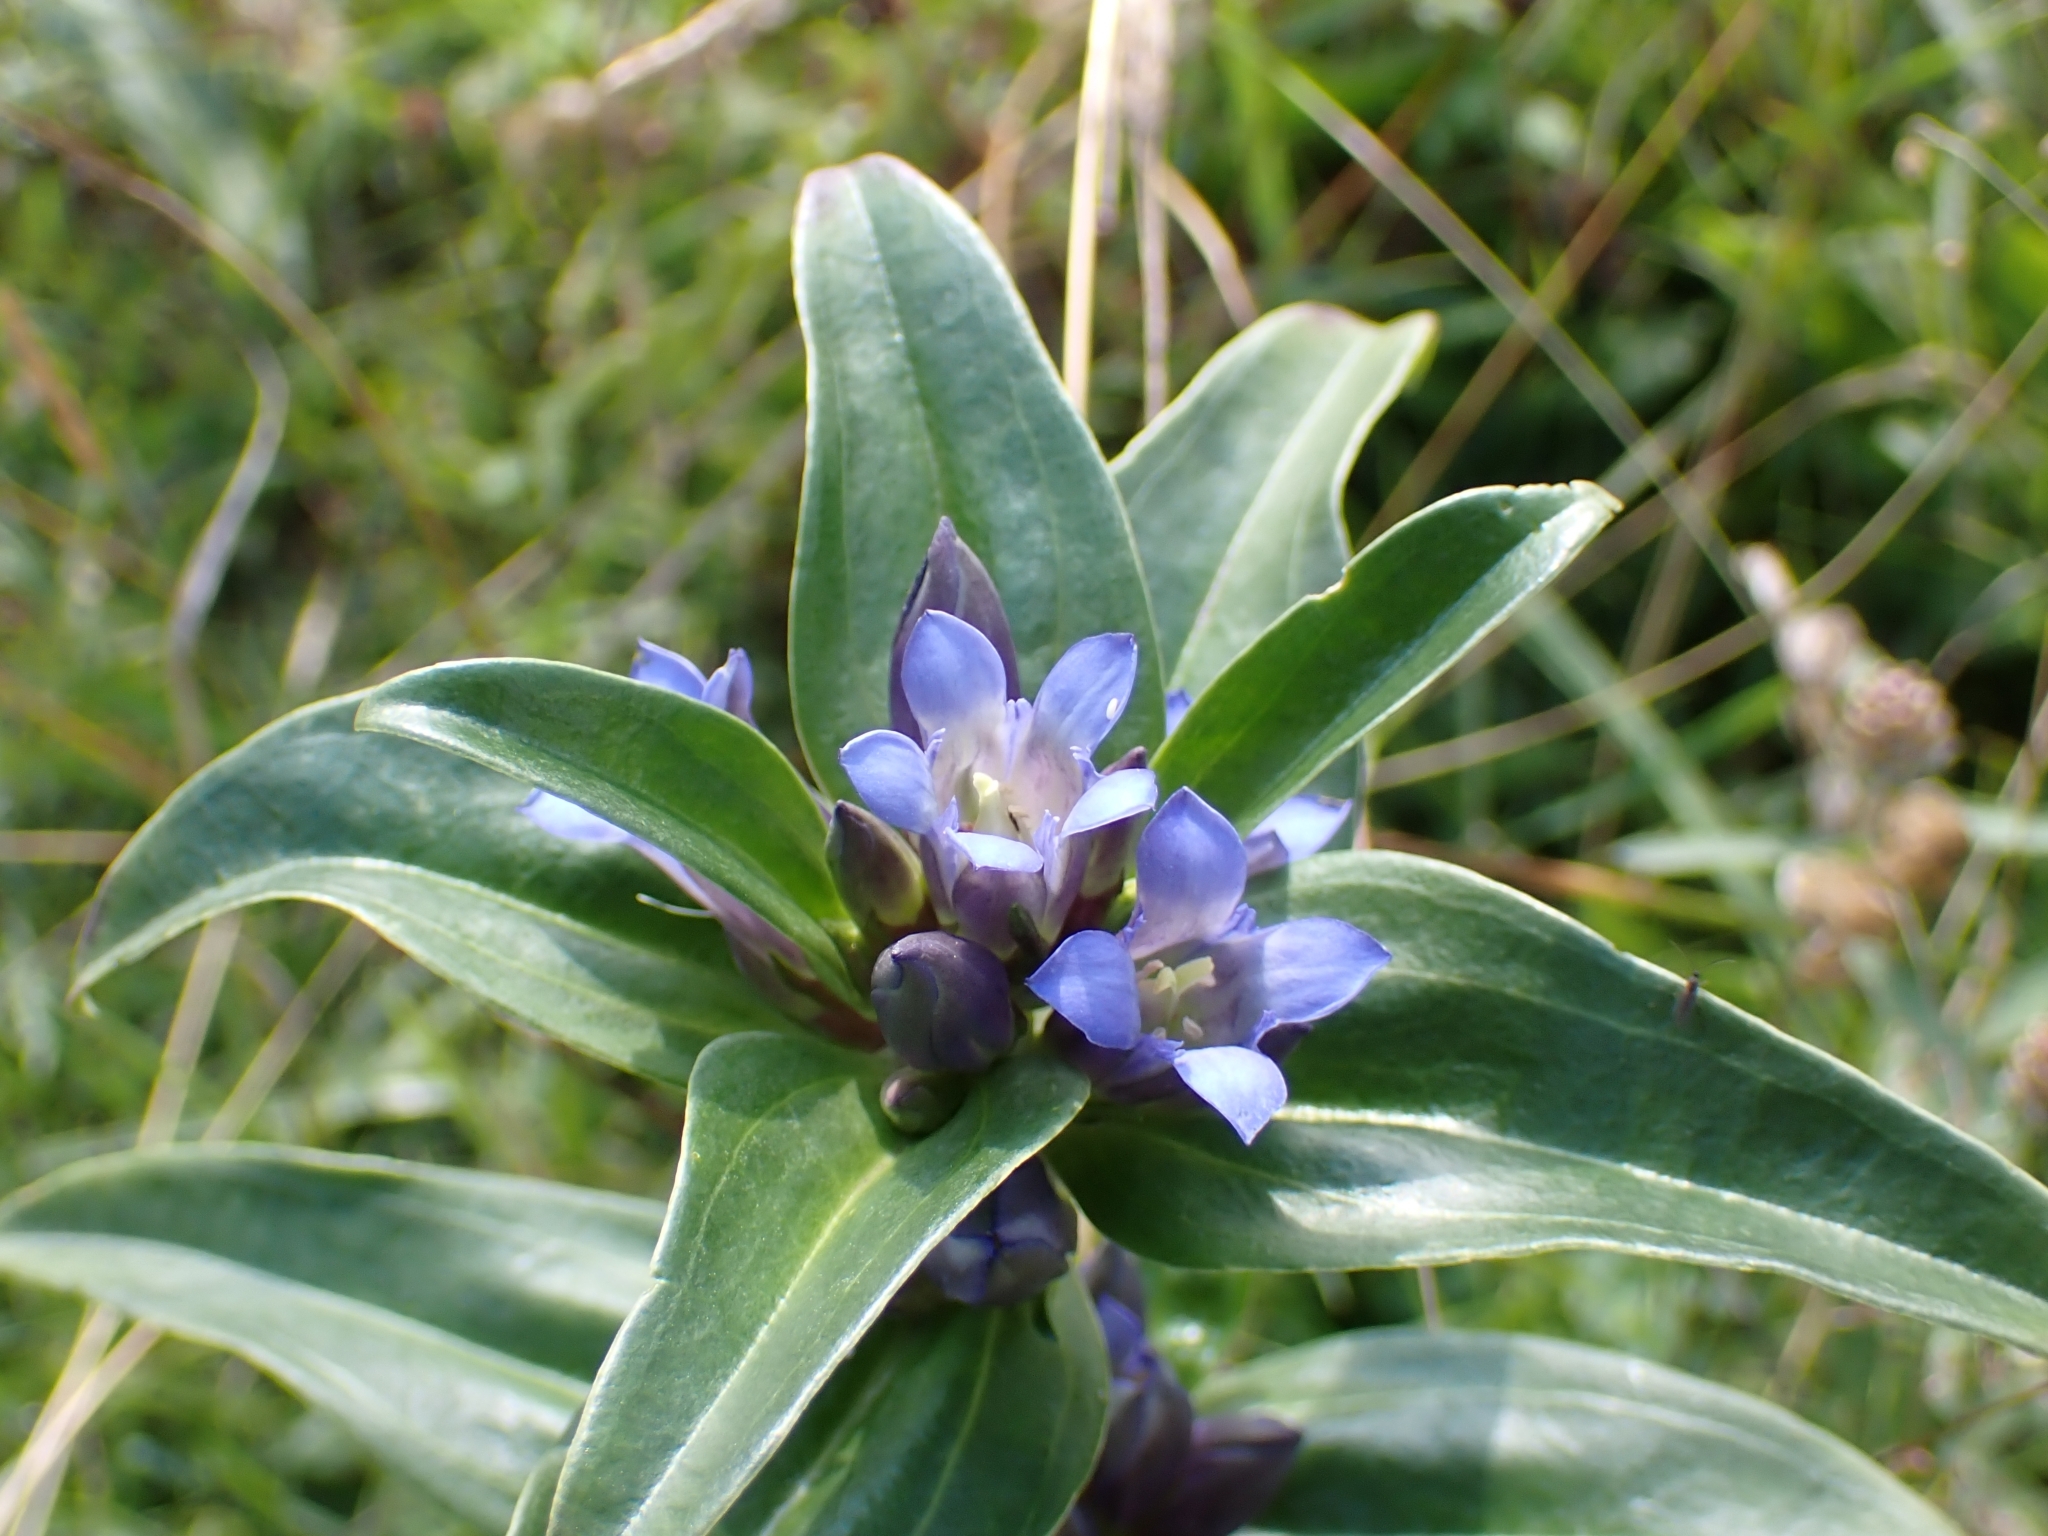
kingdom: Plantae
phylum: Tracheophyta
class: Magnoliopsida
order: Gentianales
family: Gentianaceae
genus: Gentiana
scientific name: Gentiana cruciata
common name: Cross gentian
